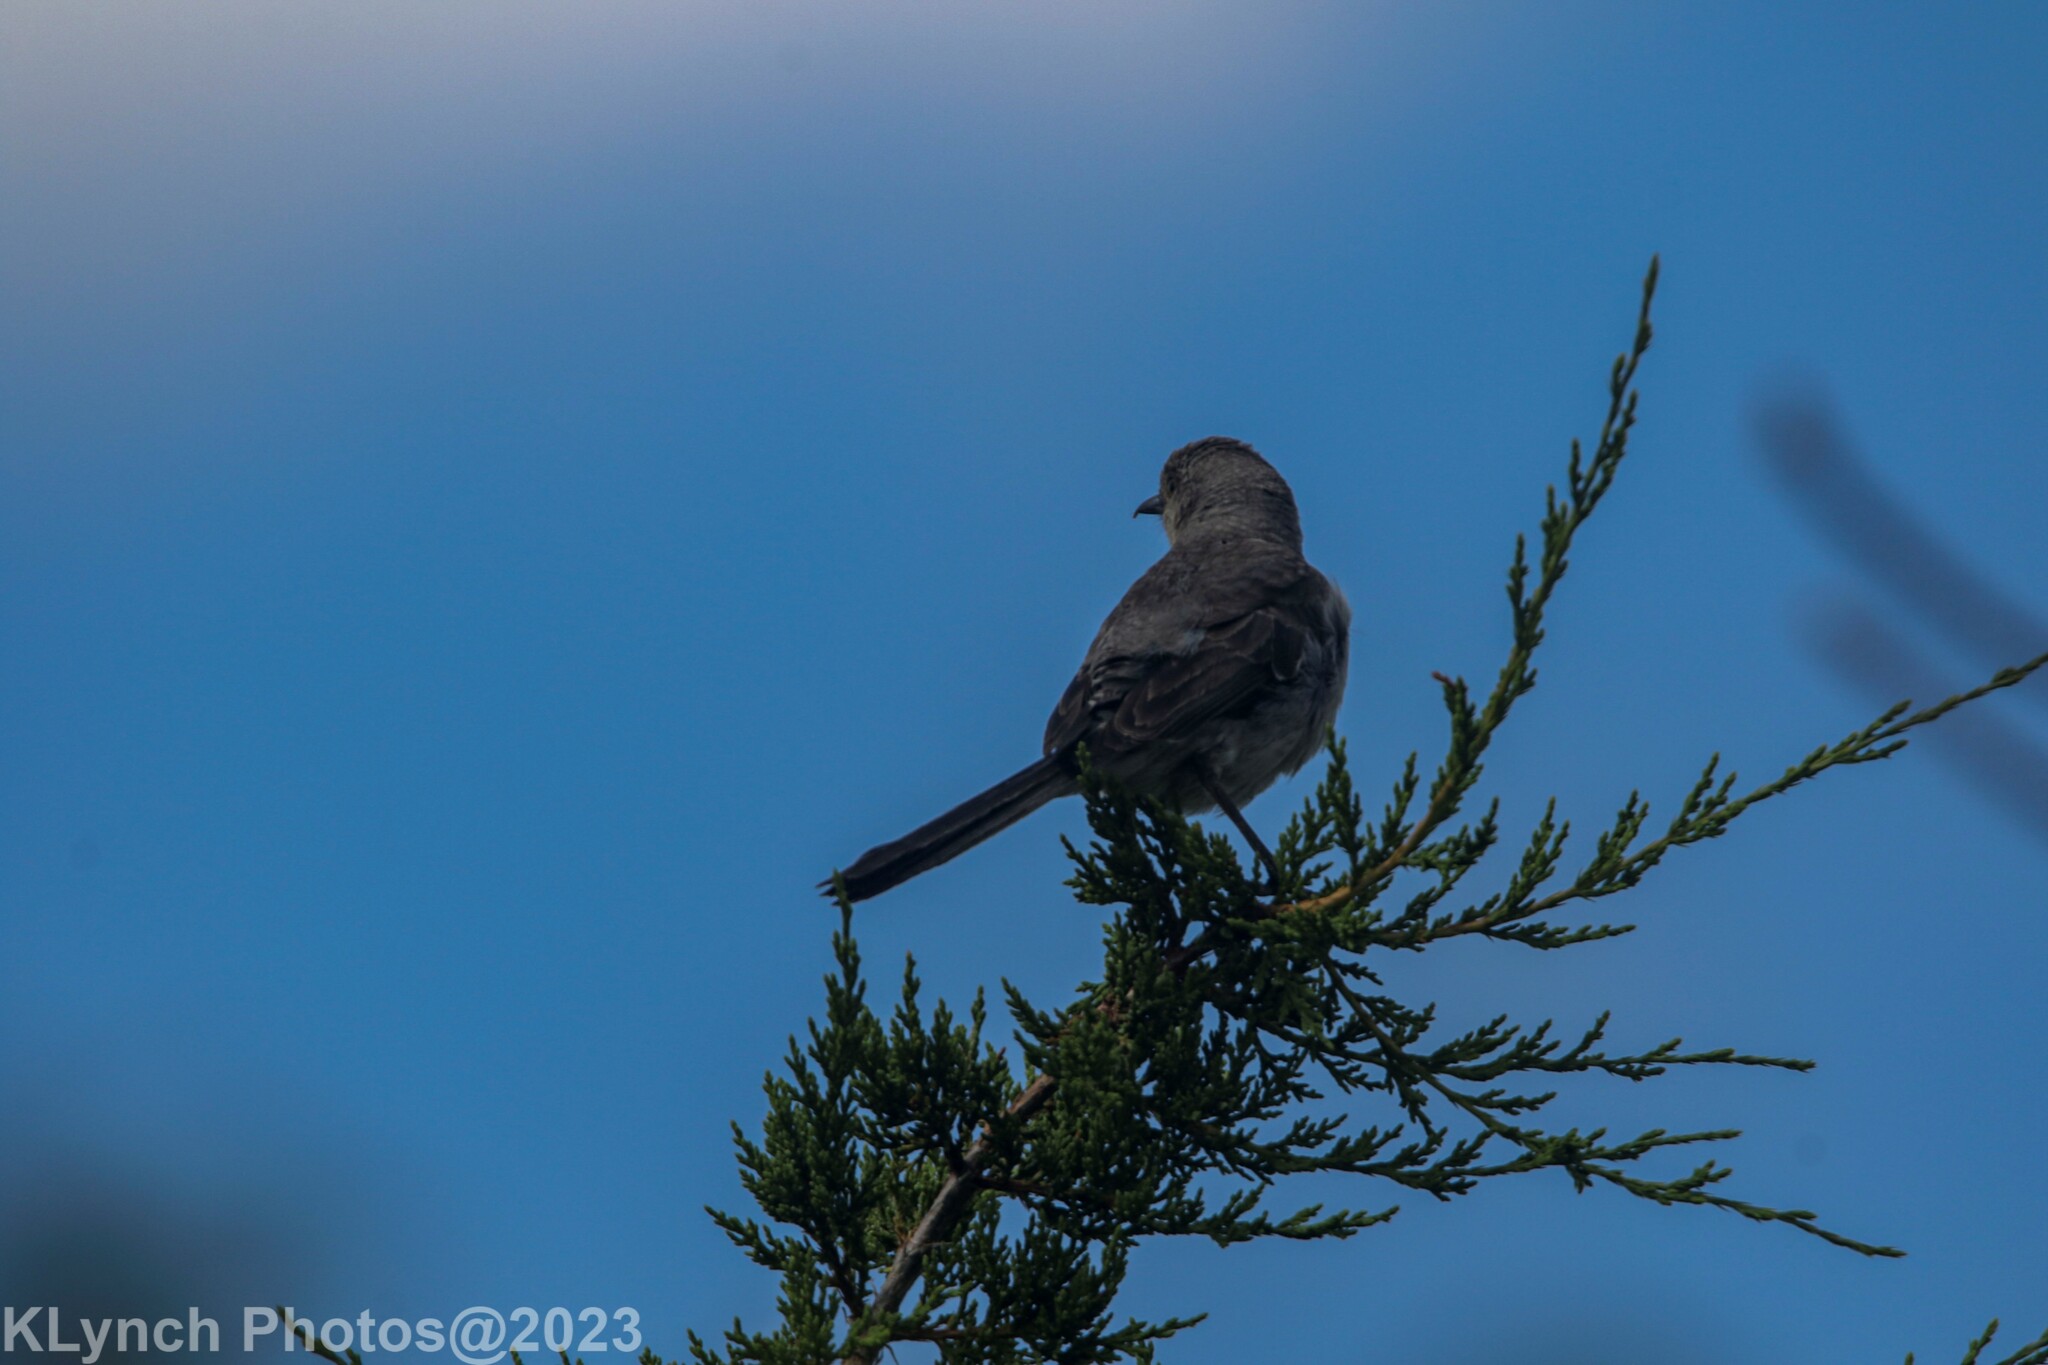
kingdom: Animalia
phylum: Chordata
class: Aves
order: Passeriformes
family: Mimidae
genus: Mimus
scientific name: Mimus polyglottos
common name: Northern mockingbird
